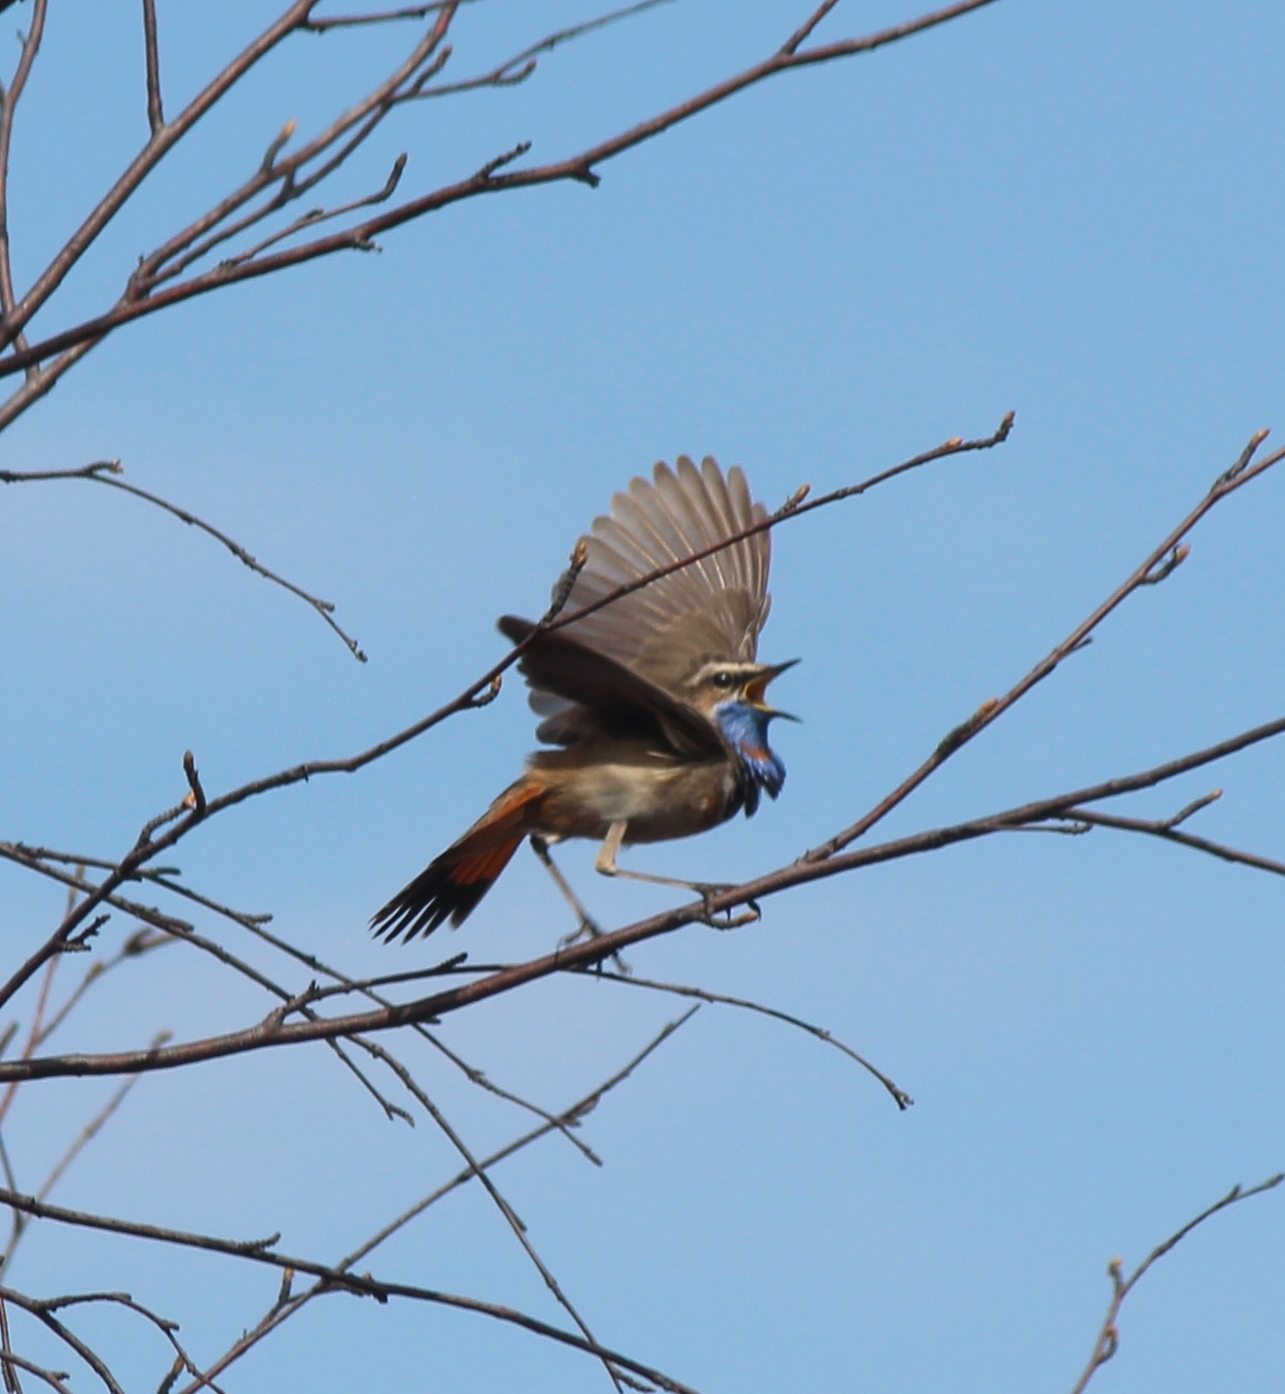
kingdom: Animalia
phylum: Chordata
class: Aves
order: Passeriformes
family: Muscicapidae
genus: Luscinia
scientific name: Luscinia svecica
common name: Bluethroat
